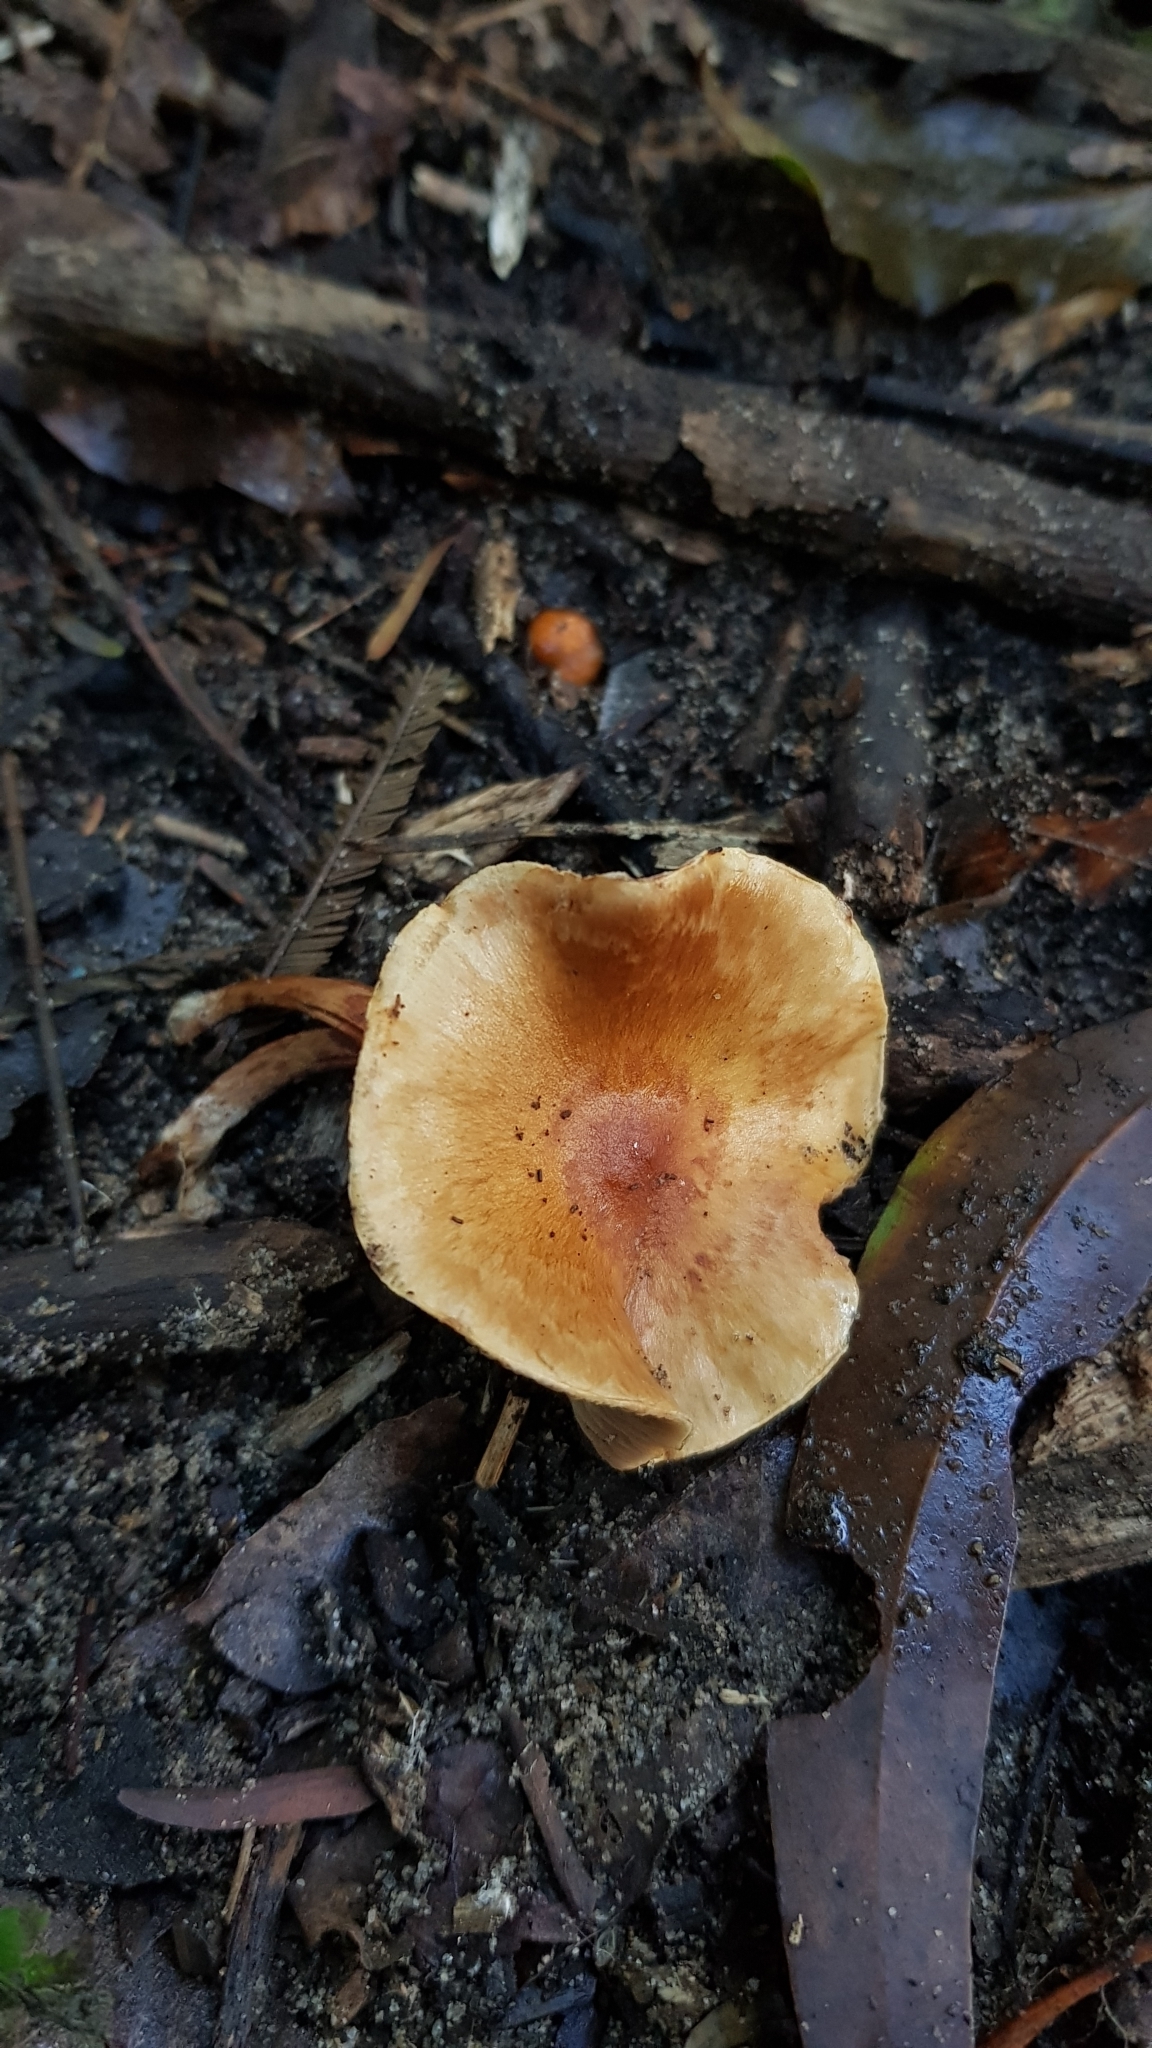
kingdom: Fungi
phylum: Basidiomycota
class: Agaricomycetes
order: Agaricales
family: Physalacriaceae
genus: Armillaria
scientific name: Armillaria luteobubalina
